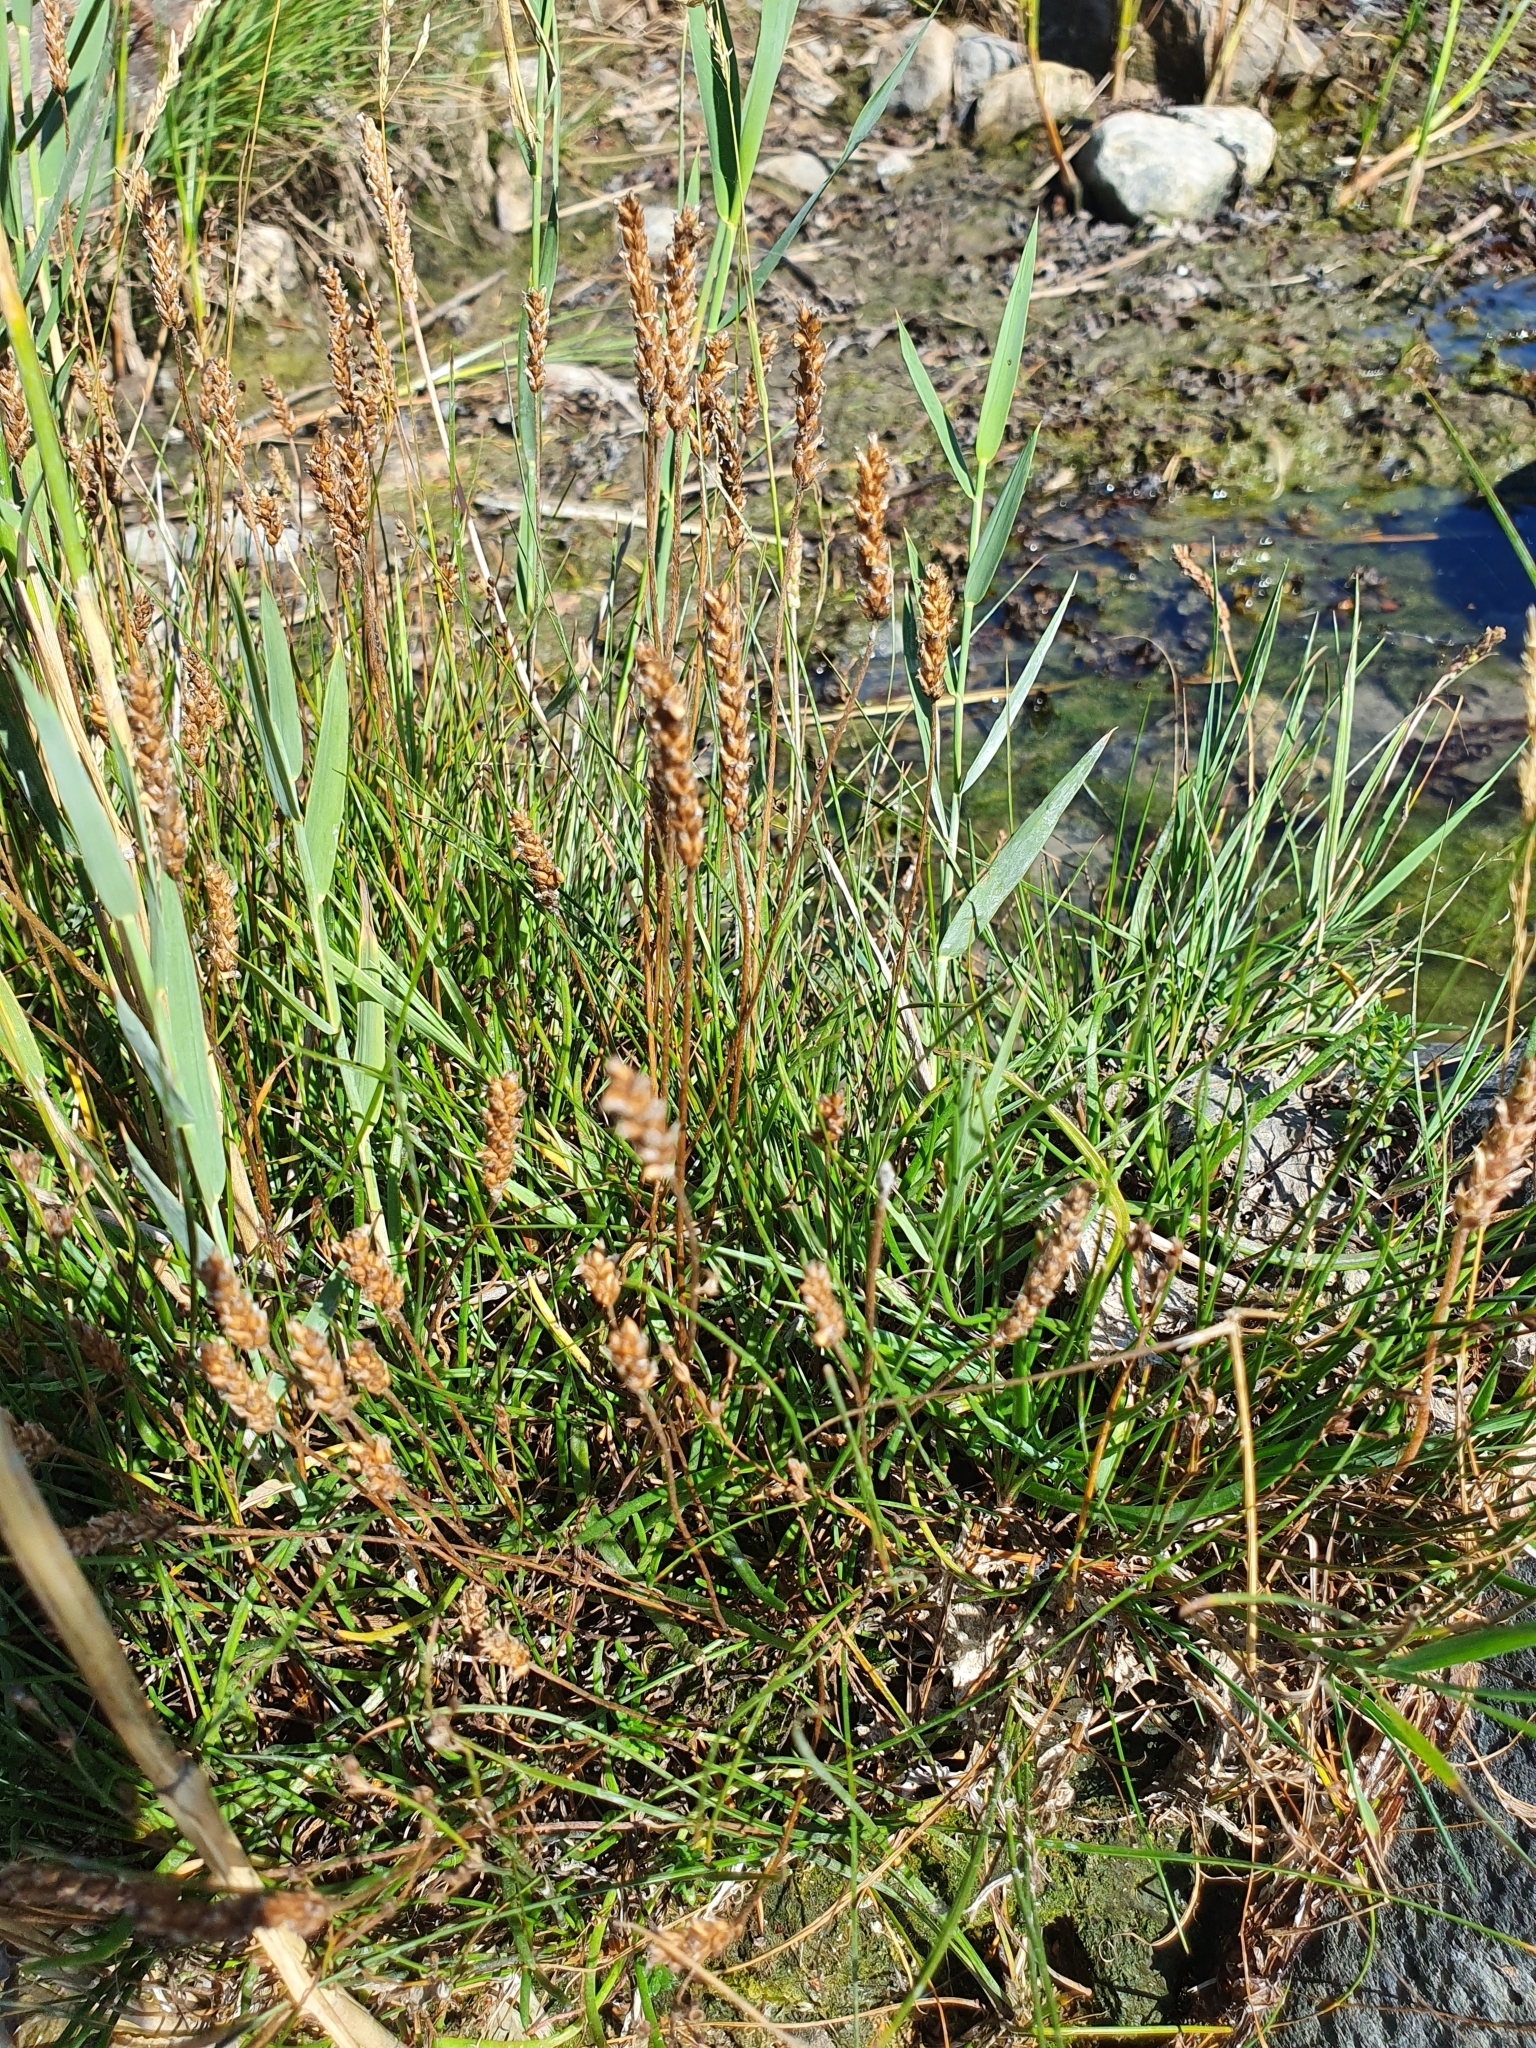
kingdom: Plantae
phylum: Tracheophyta
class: Magnoliopsida
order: Lamiales
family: Plantaginaceae
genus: Plantago
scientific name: Plantago maritima
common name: Sea plantain
